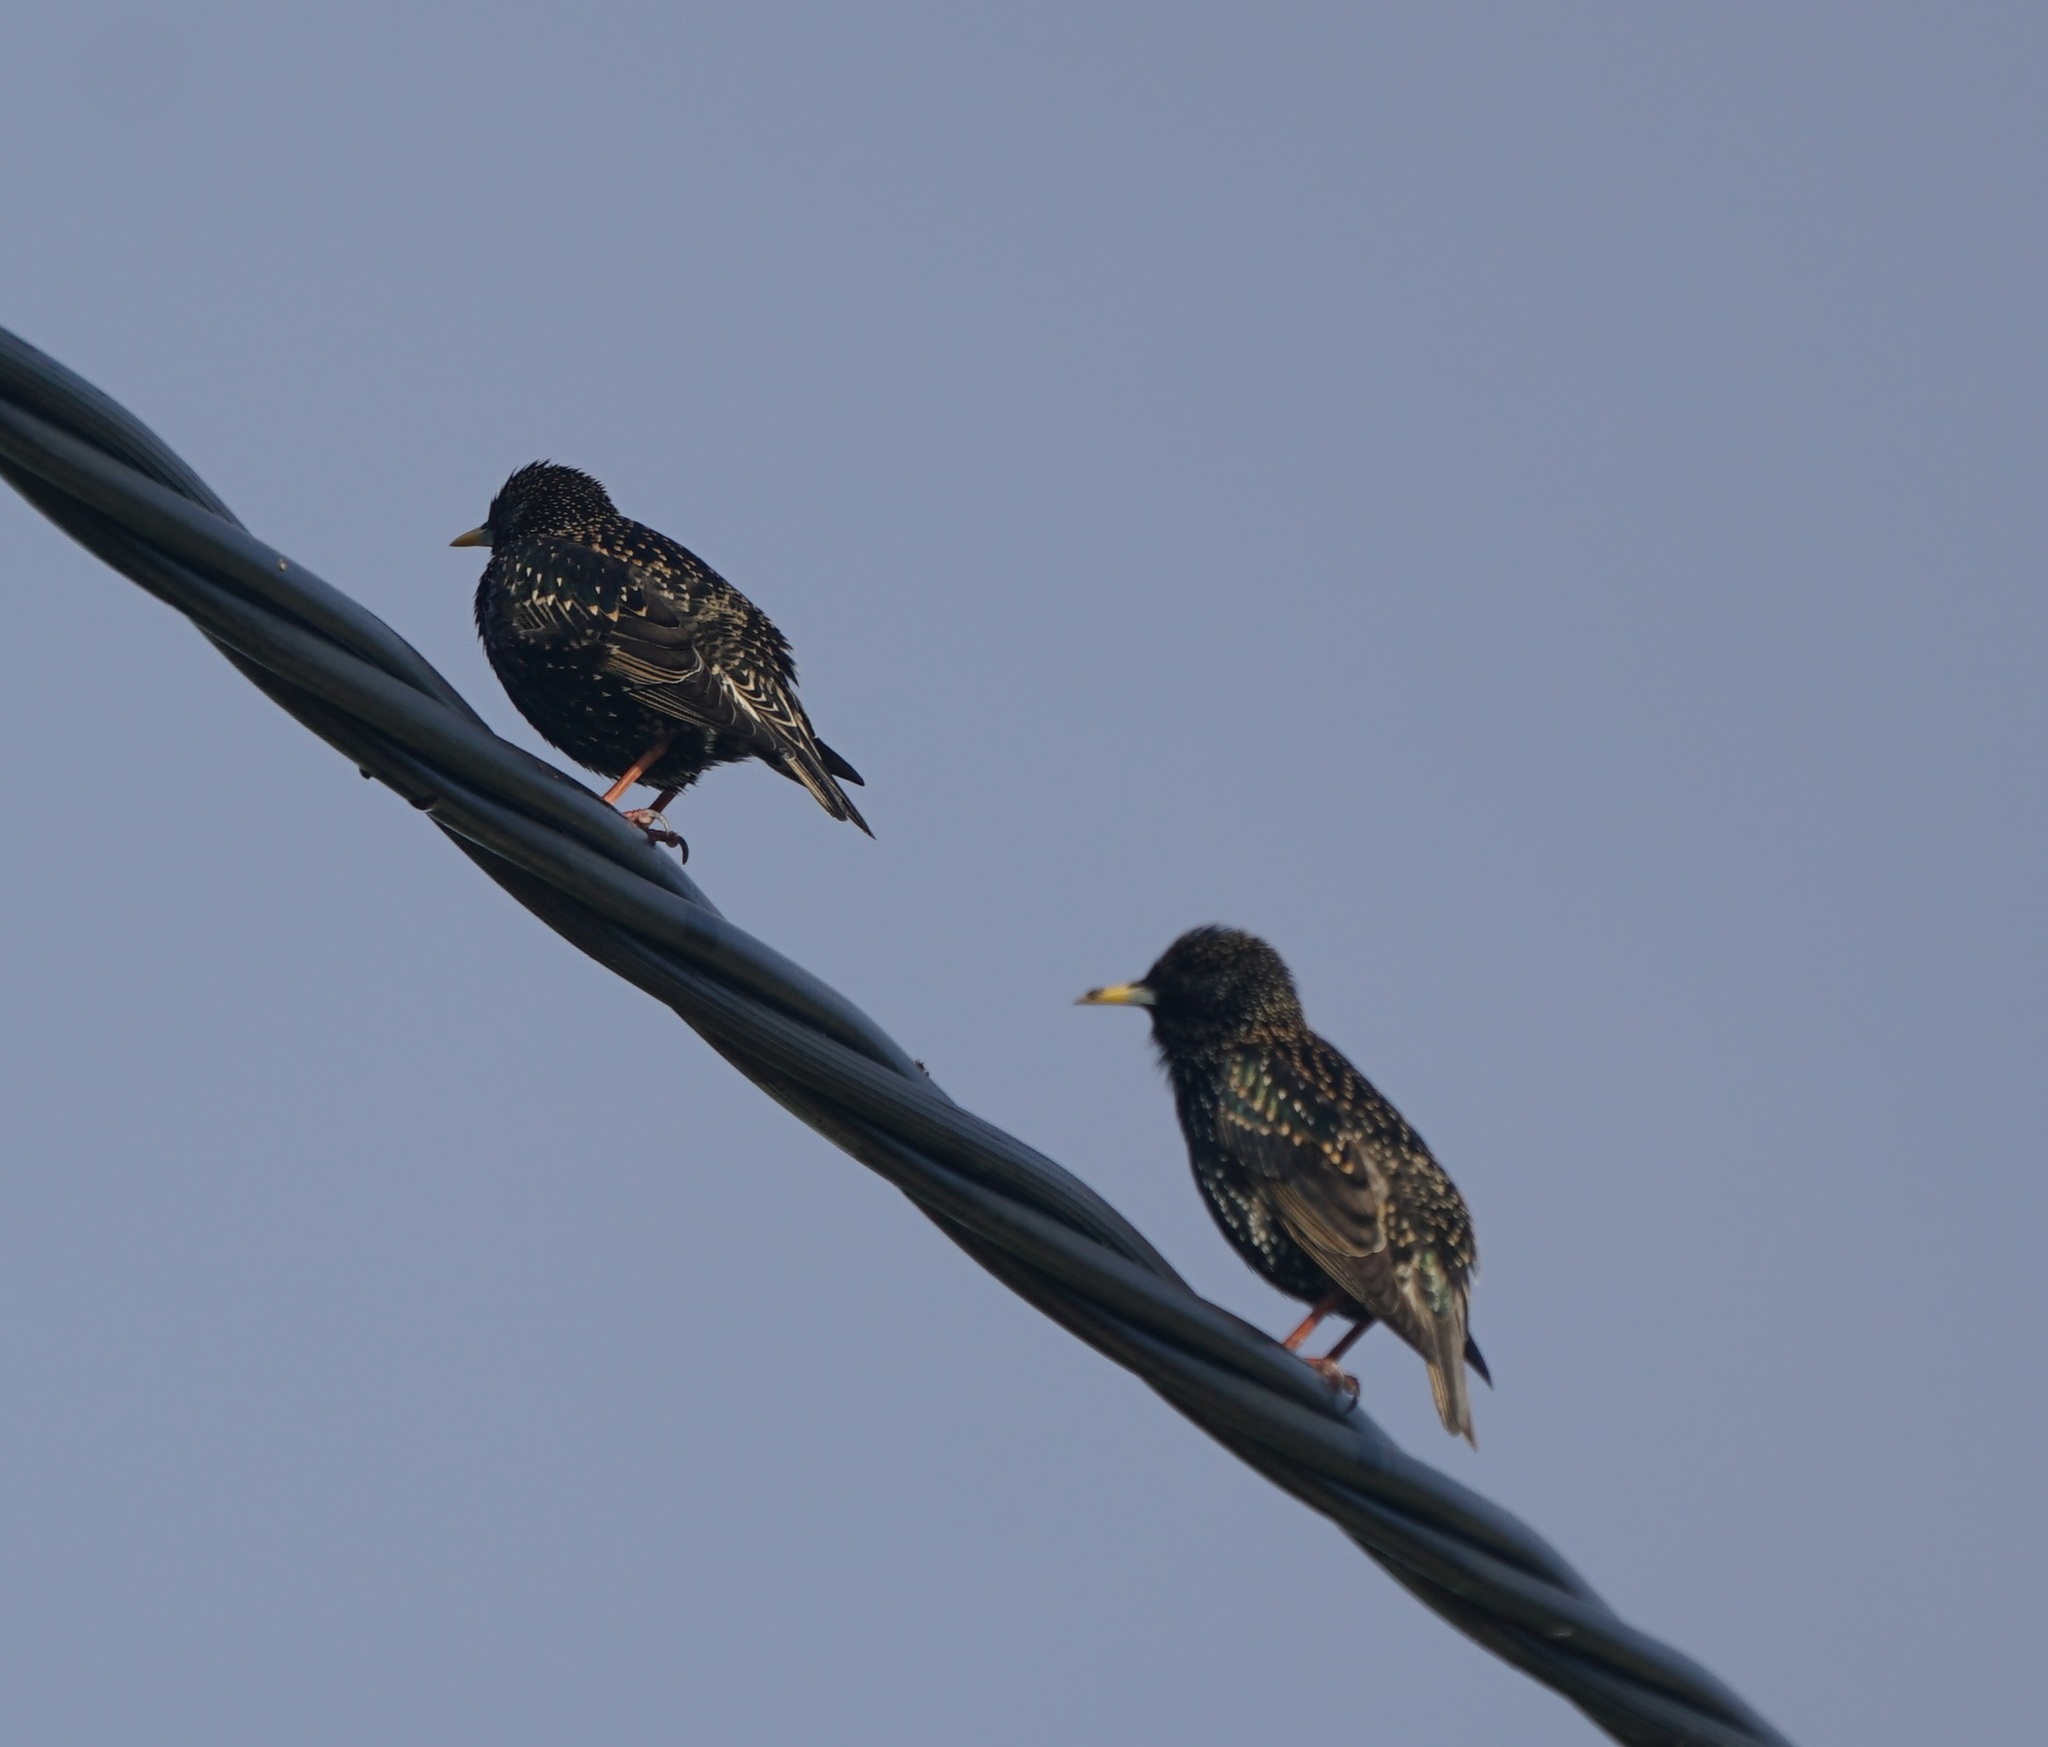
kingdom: Animalia
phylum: Chordata
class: Aves
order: Passeriformes
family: Sturnidae
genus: Sturnus
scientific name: Sturnus vulgaris
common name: Common starling
